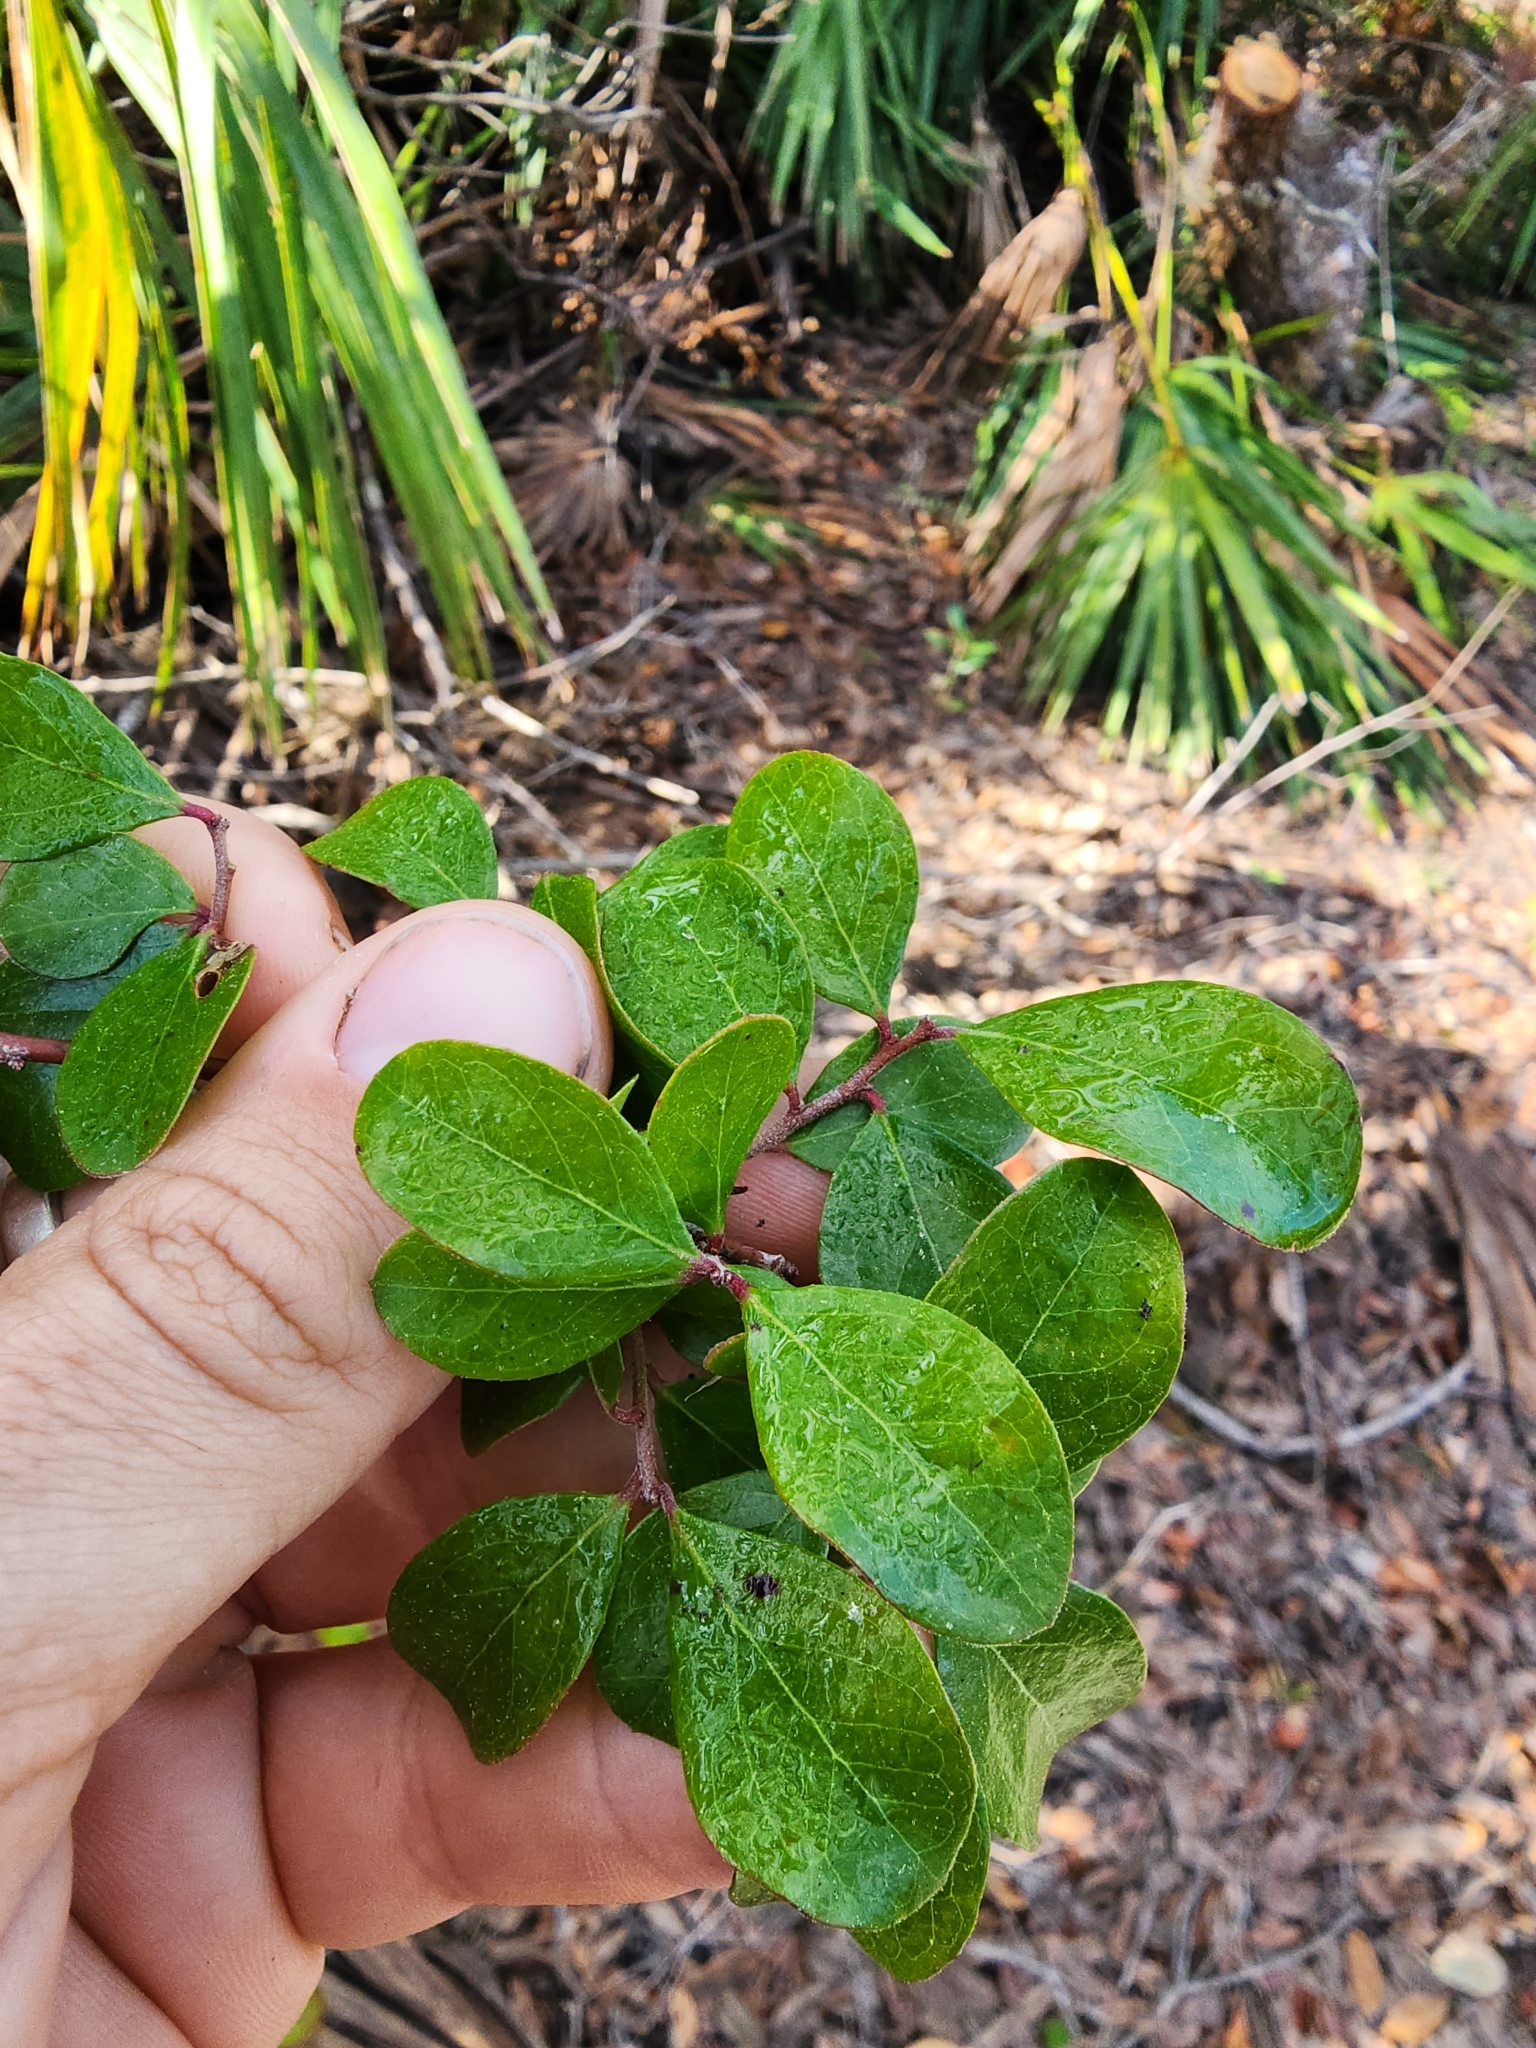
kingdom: Plantae
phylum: Tracheophyta
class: Magnoliopsida
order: Ericales
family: Ericaceae
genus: Vaccinium
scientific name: Vaccinium arboreum
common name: Farkleberry
